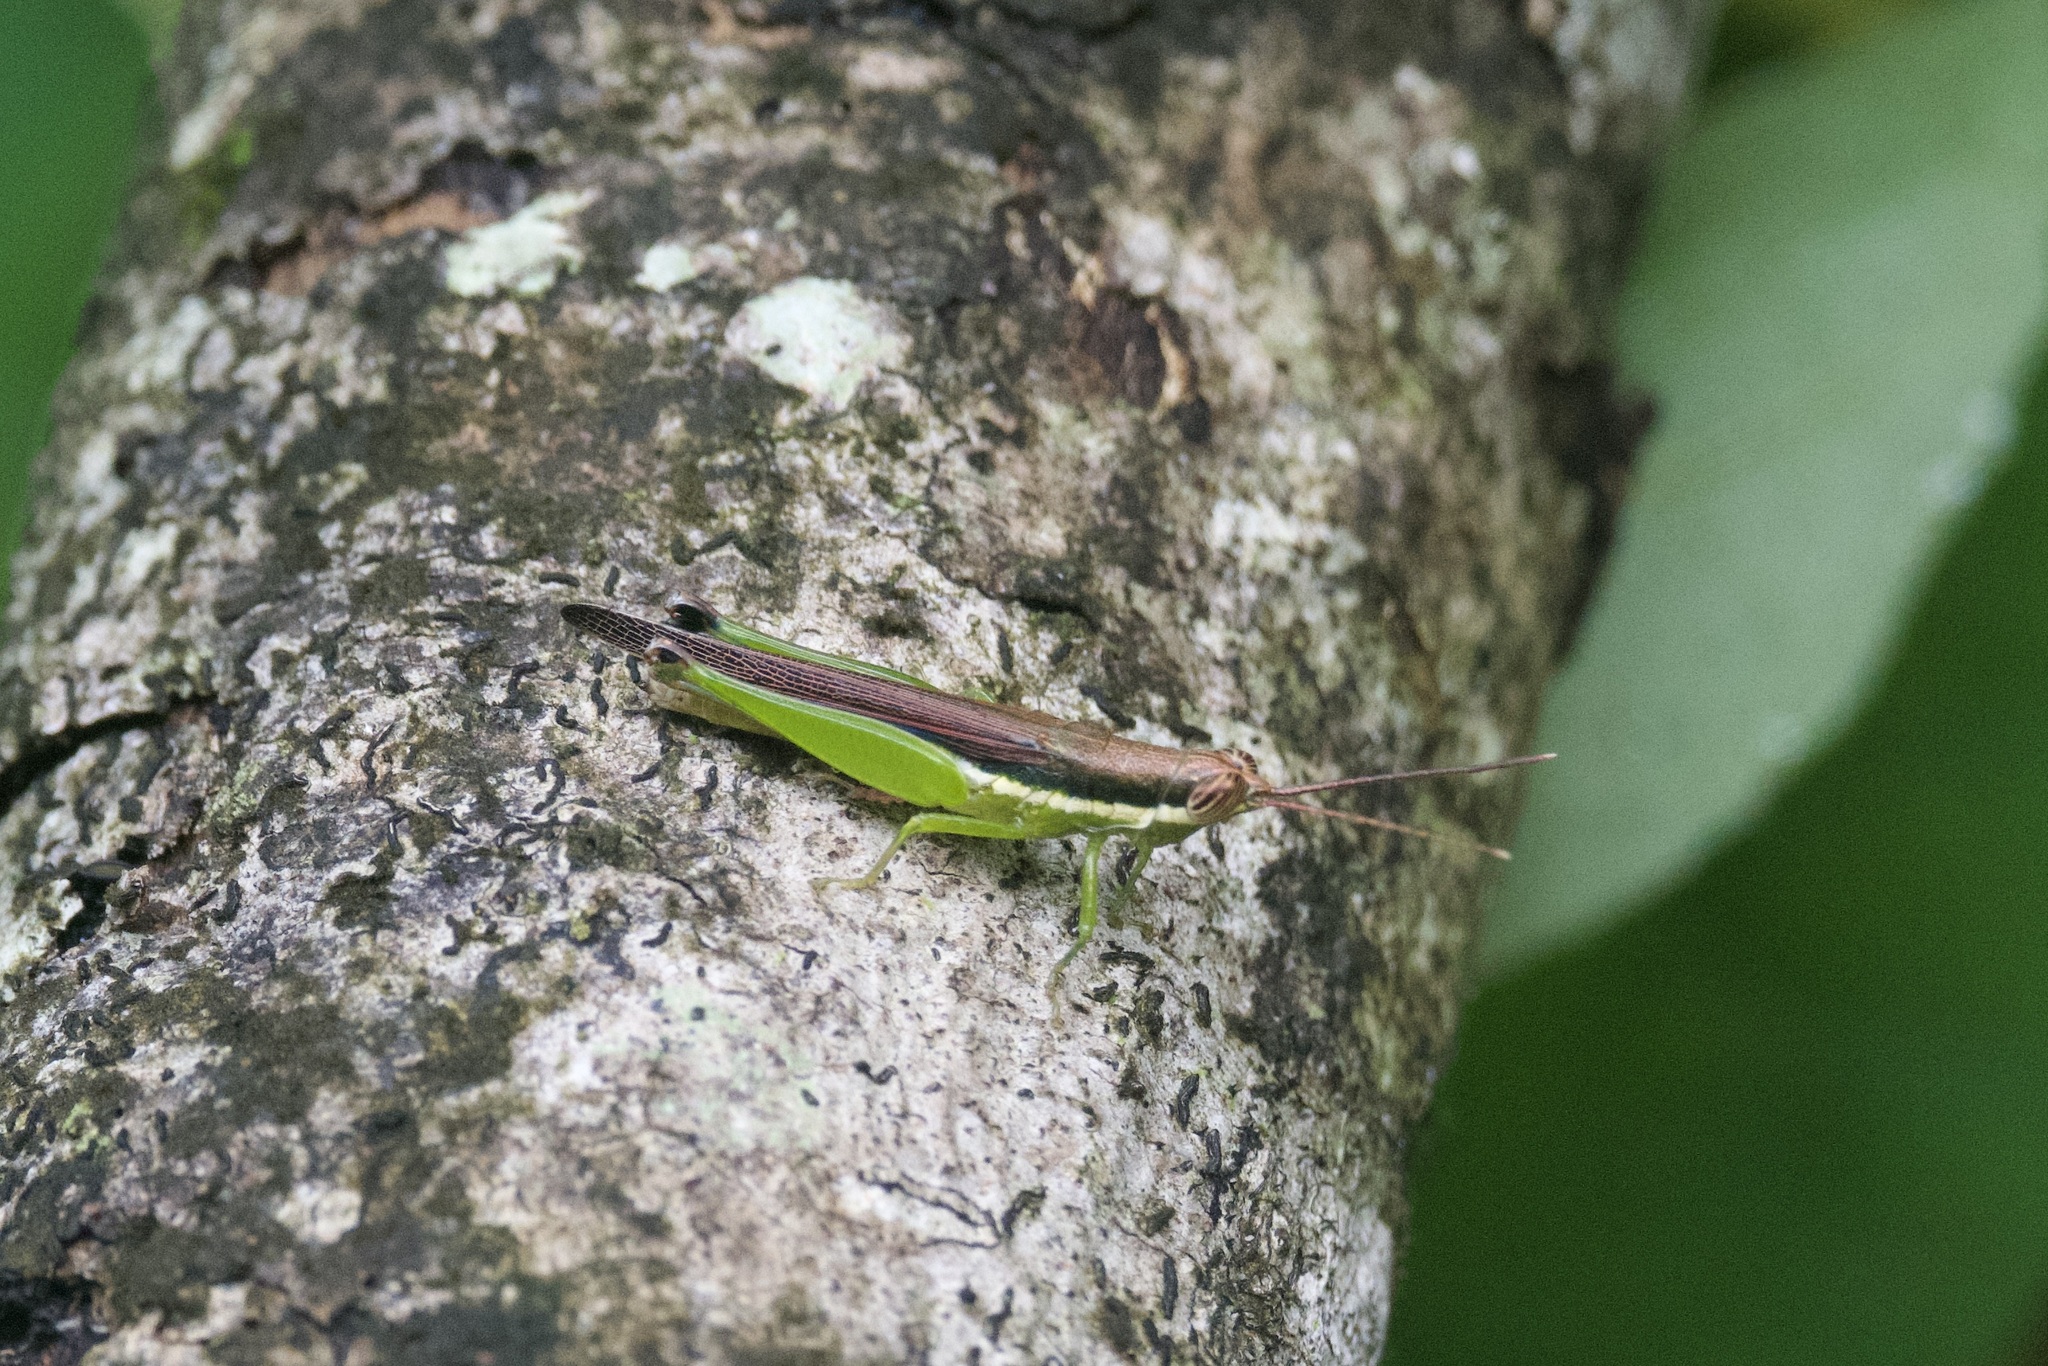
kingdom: Animalia
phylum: Arthropoda
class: Insecta
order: Orthoptera
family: Acrididae
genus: Stenopola
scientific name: Stenopola puncticeps
